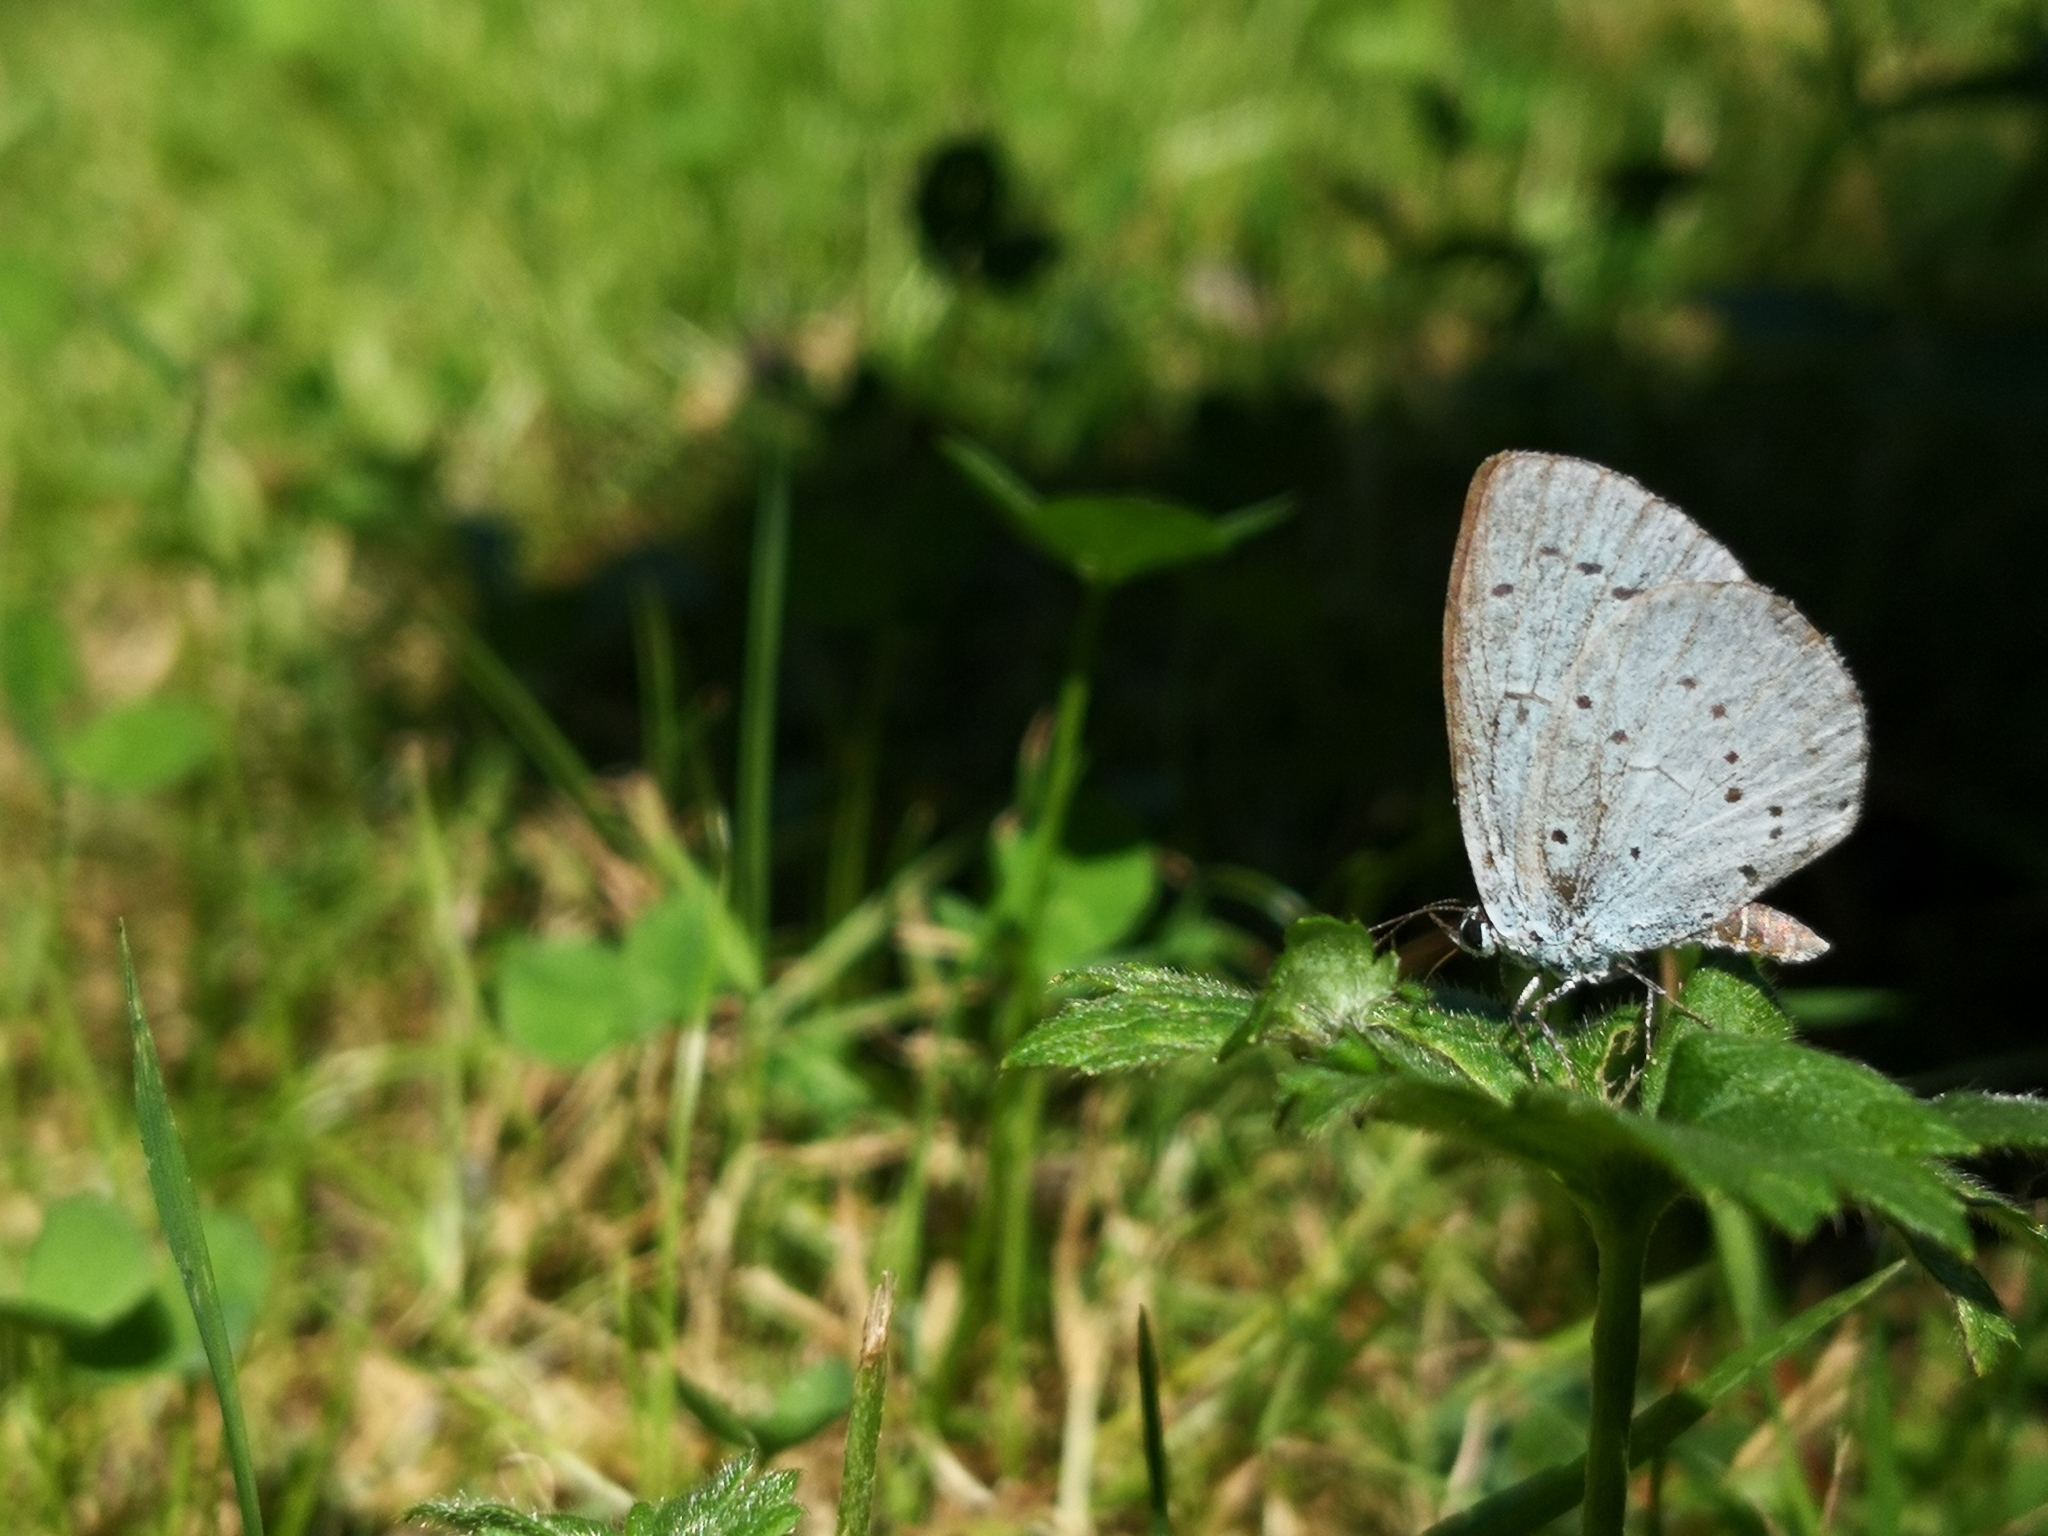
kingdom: Animalia
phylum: Arthropoda
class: Insecta
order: Lepidoptera
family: Lycaenidae
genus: Celastrina
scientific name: Celastrina argiolus
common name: Holly blue
